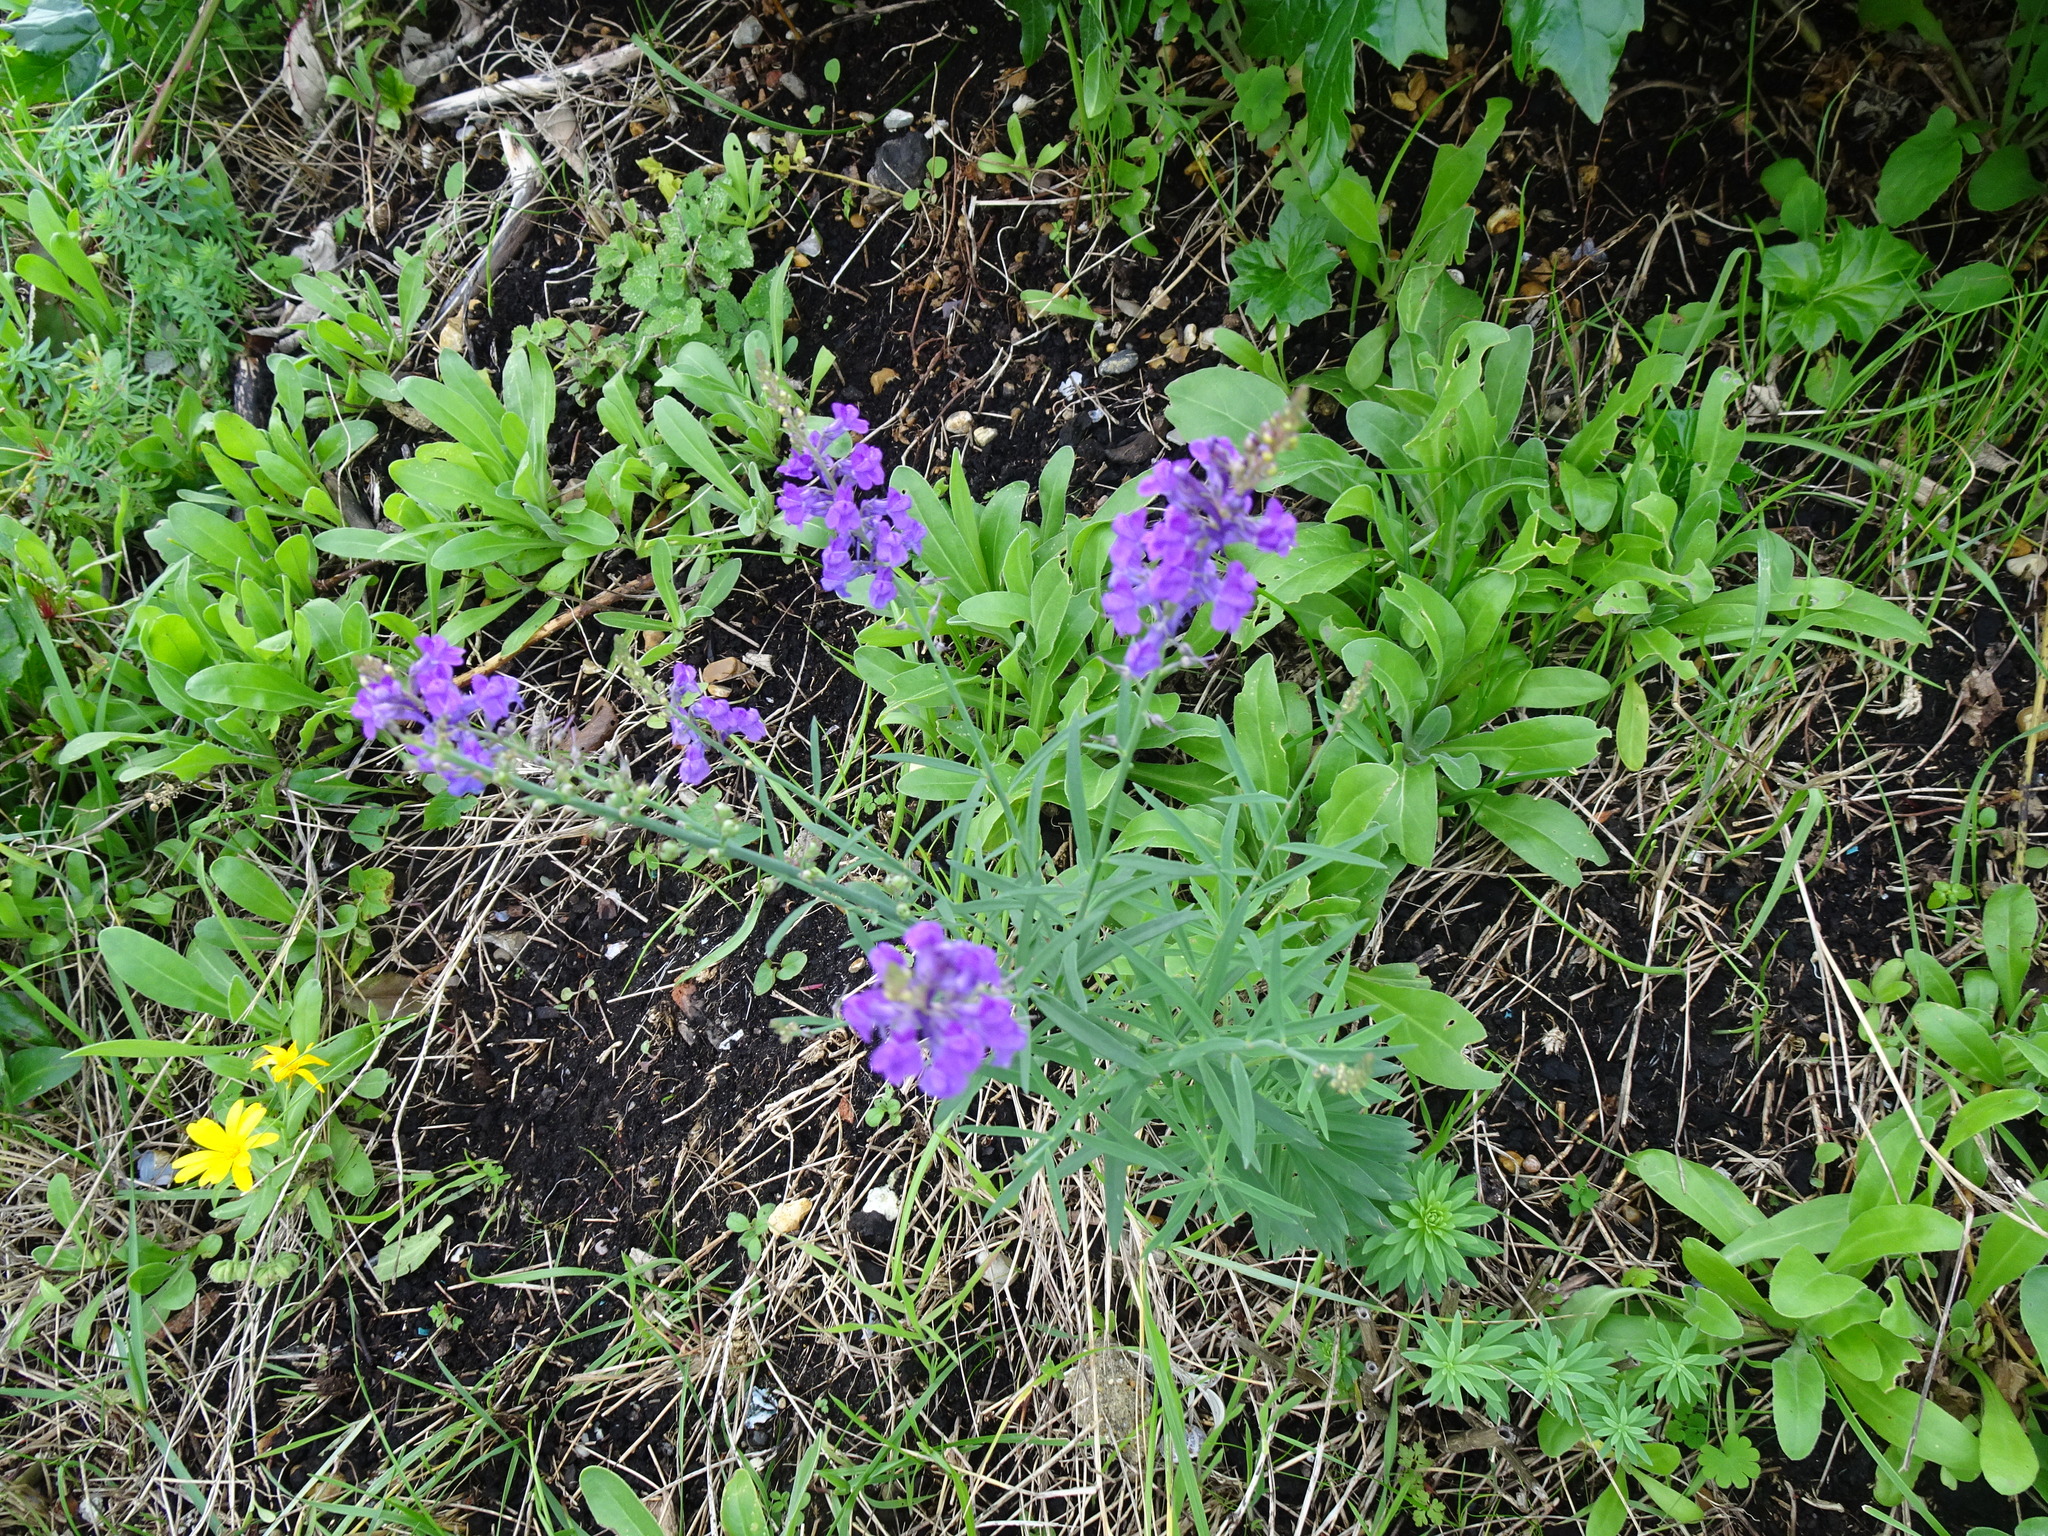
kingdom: Plantae
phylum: Tracheophyta
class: Magnoliopsida
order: Lamiales
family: Plantaginaceae
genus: Linaria
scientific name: Linaria purpurea
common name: Purple toadflax
